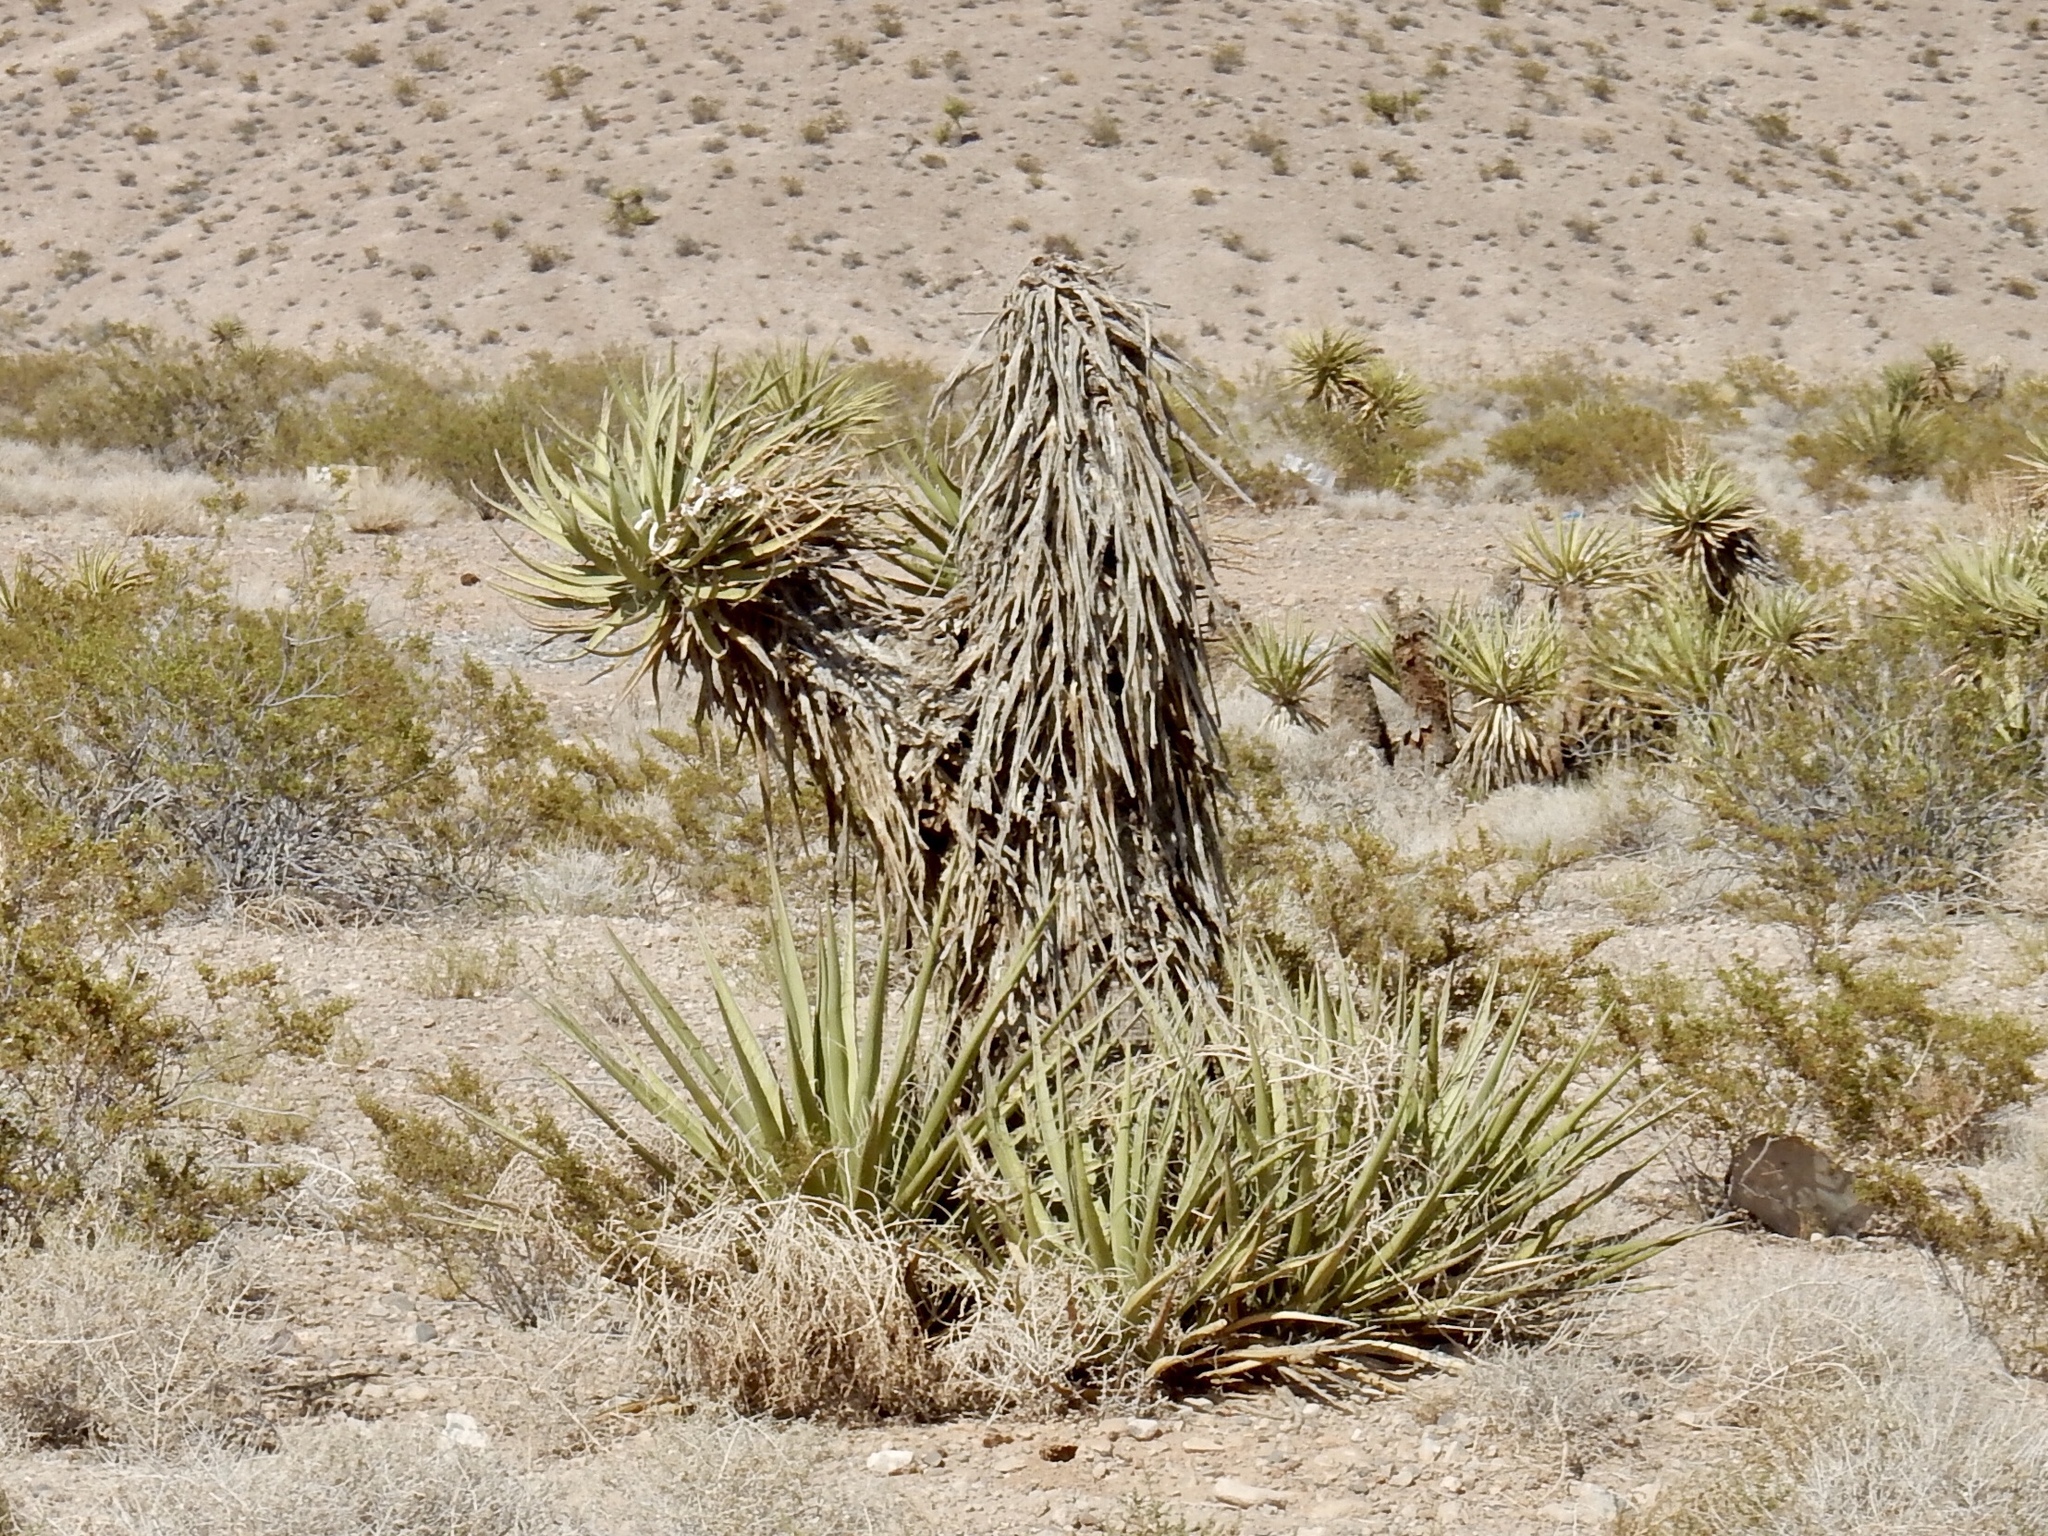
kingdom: Plantae
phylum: Tracheophyta
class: Liliopsida
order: Asparagales
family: Asparagaceae
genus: Yucca
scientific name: Yucca schidigera
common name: Mojave yucca
